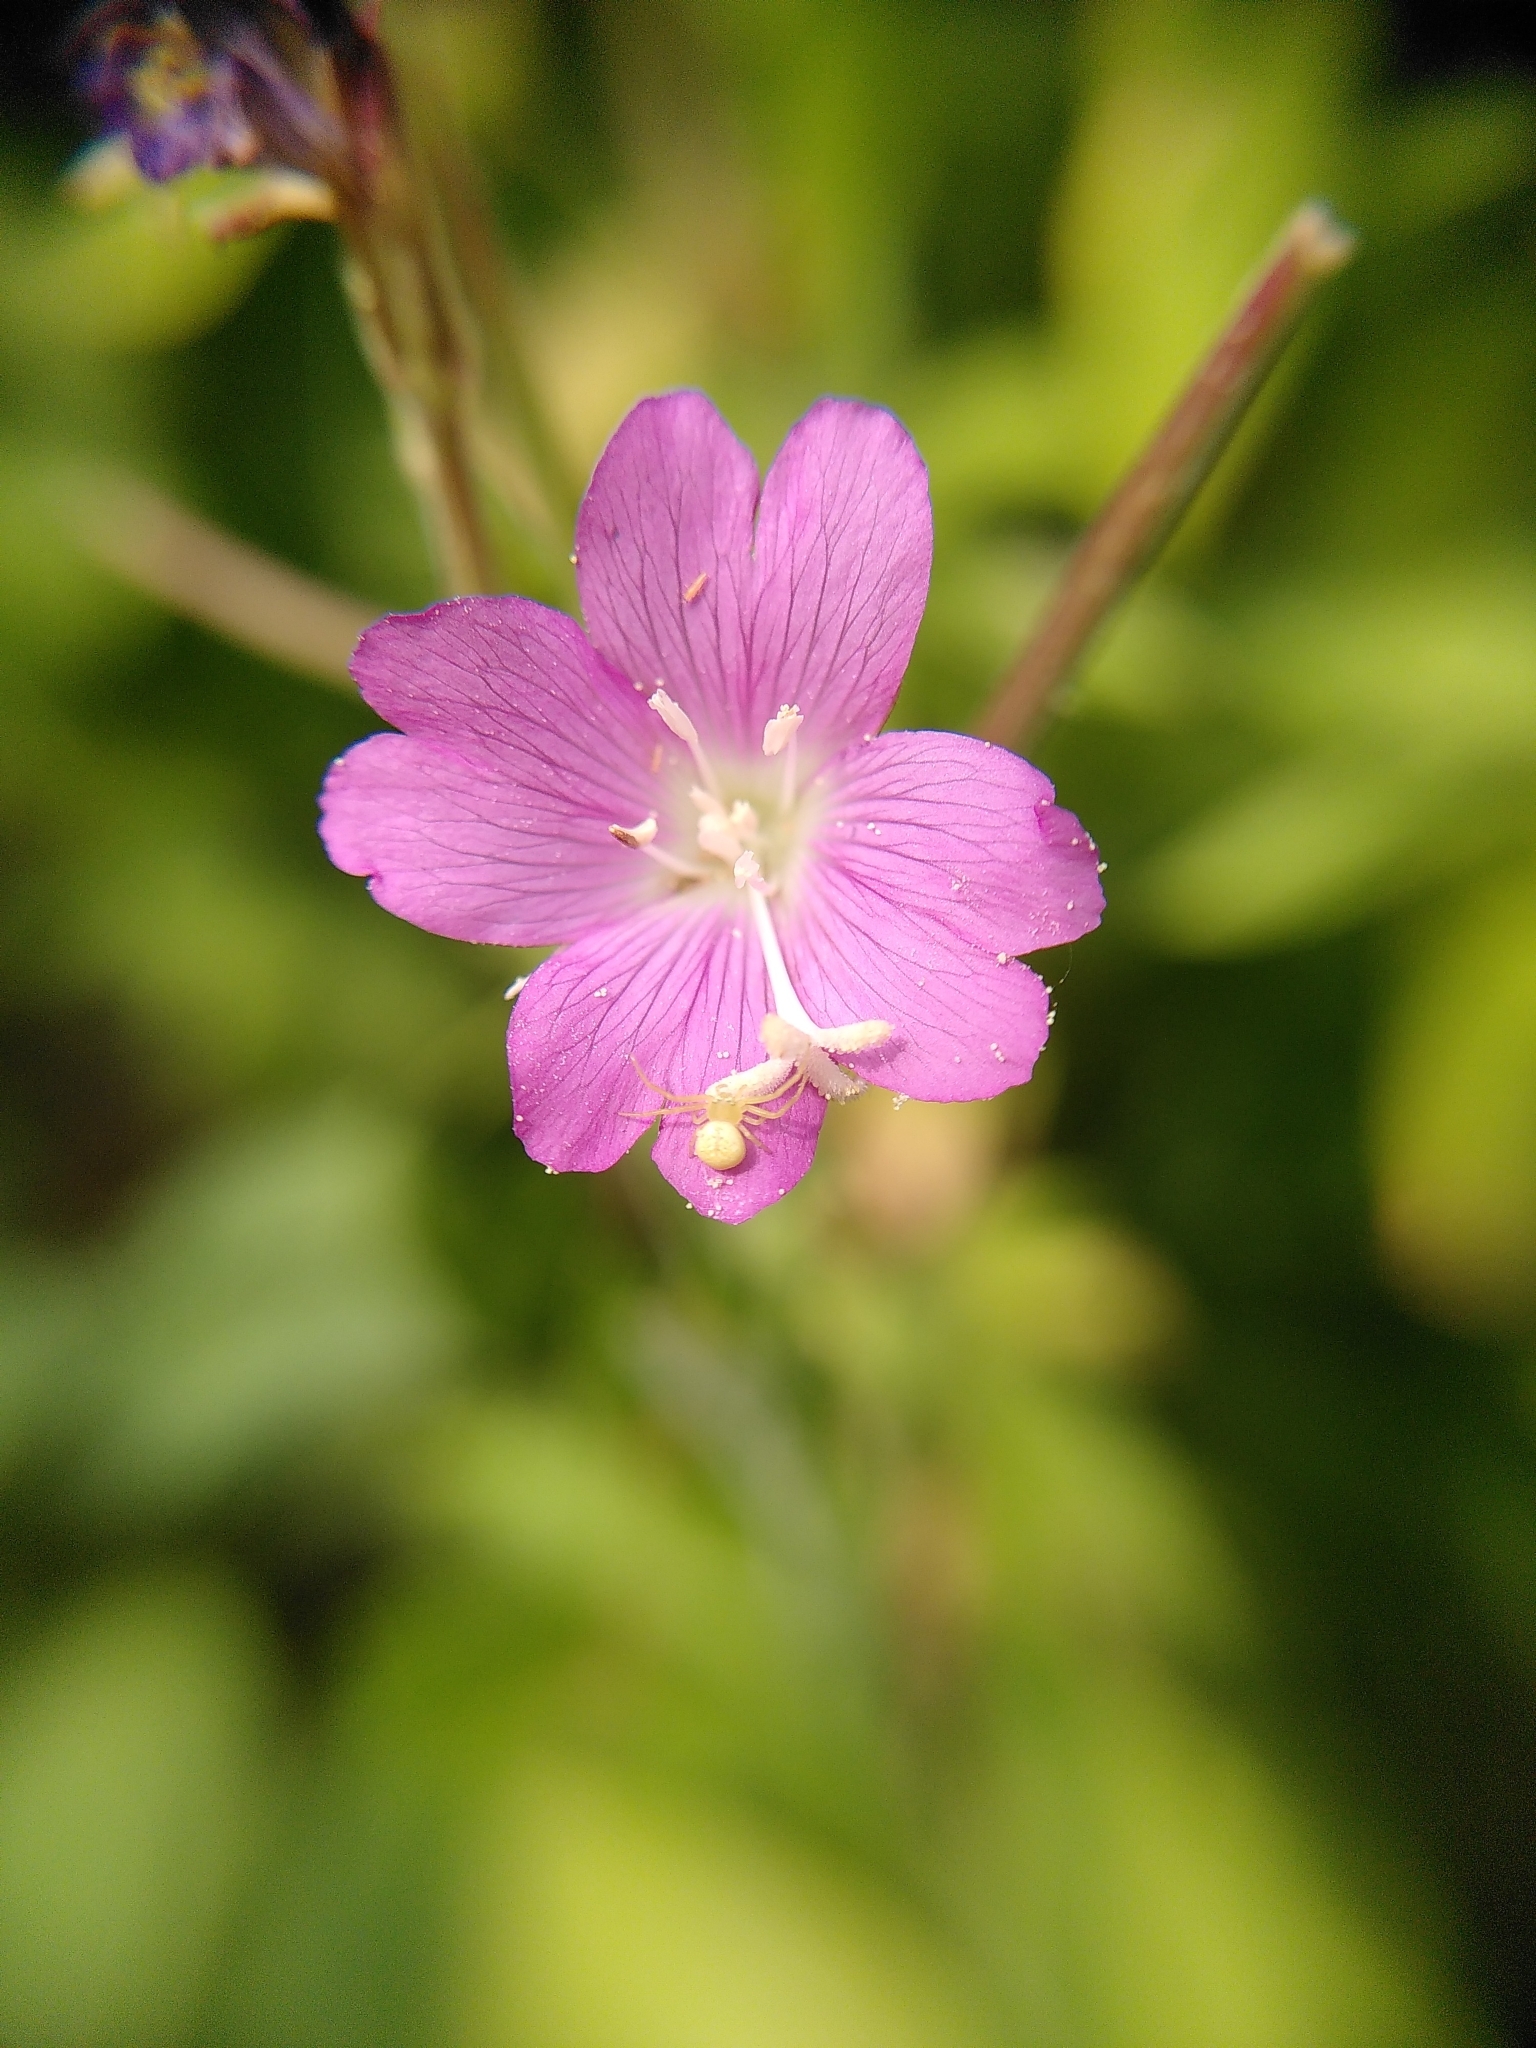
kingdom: Plantae
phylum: Tracheophyta
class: Magnoliopsida
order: Myrtales
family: Onagraceae
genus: Epilobium
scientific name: Epilobium hirsutum
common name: Great willowherb
